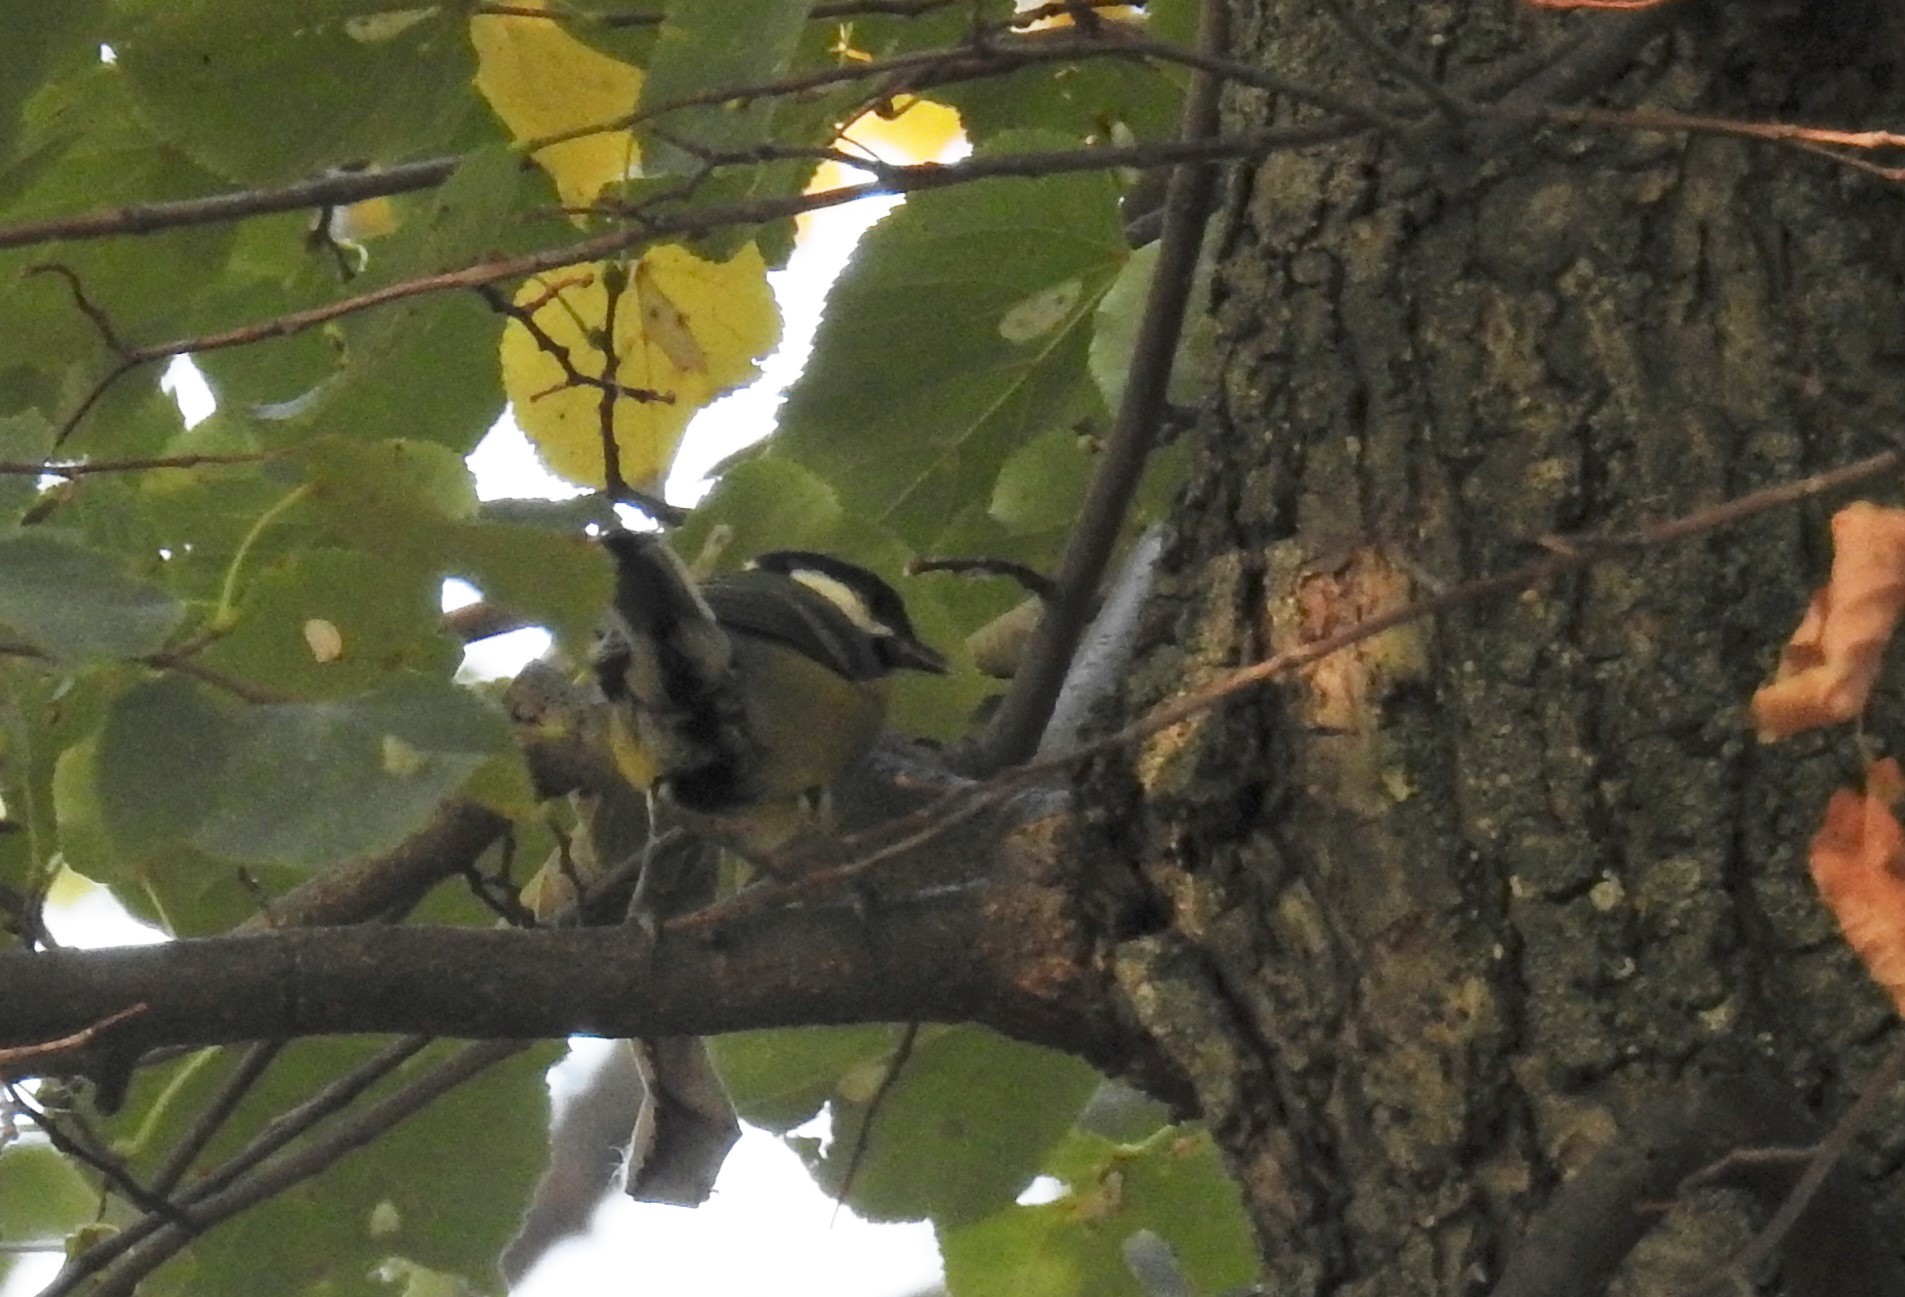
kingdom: Animalia
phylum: Chordata
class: Aves
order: Passeriformes
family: Paridae
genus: Parus
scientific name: Parus major
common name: Great tit
